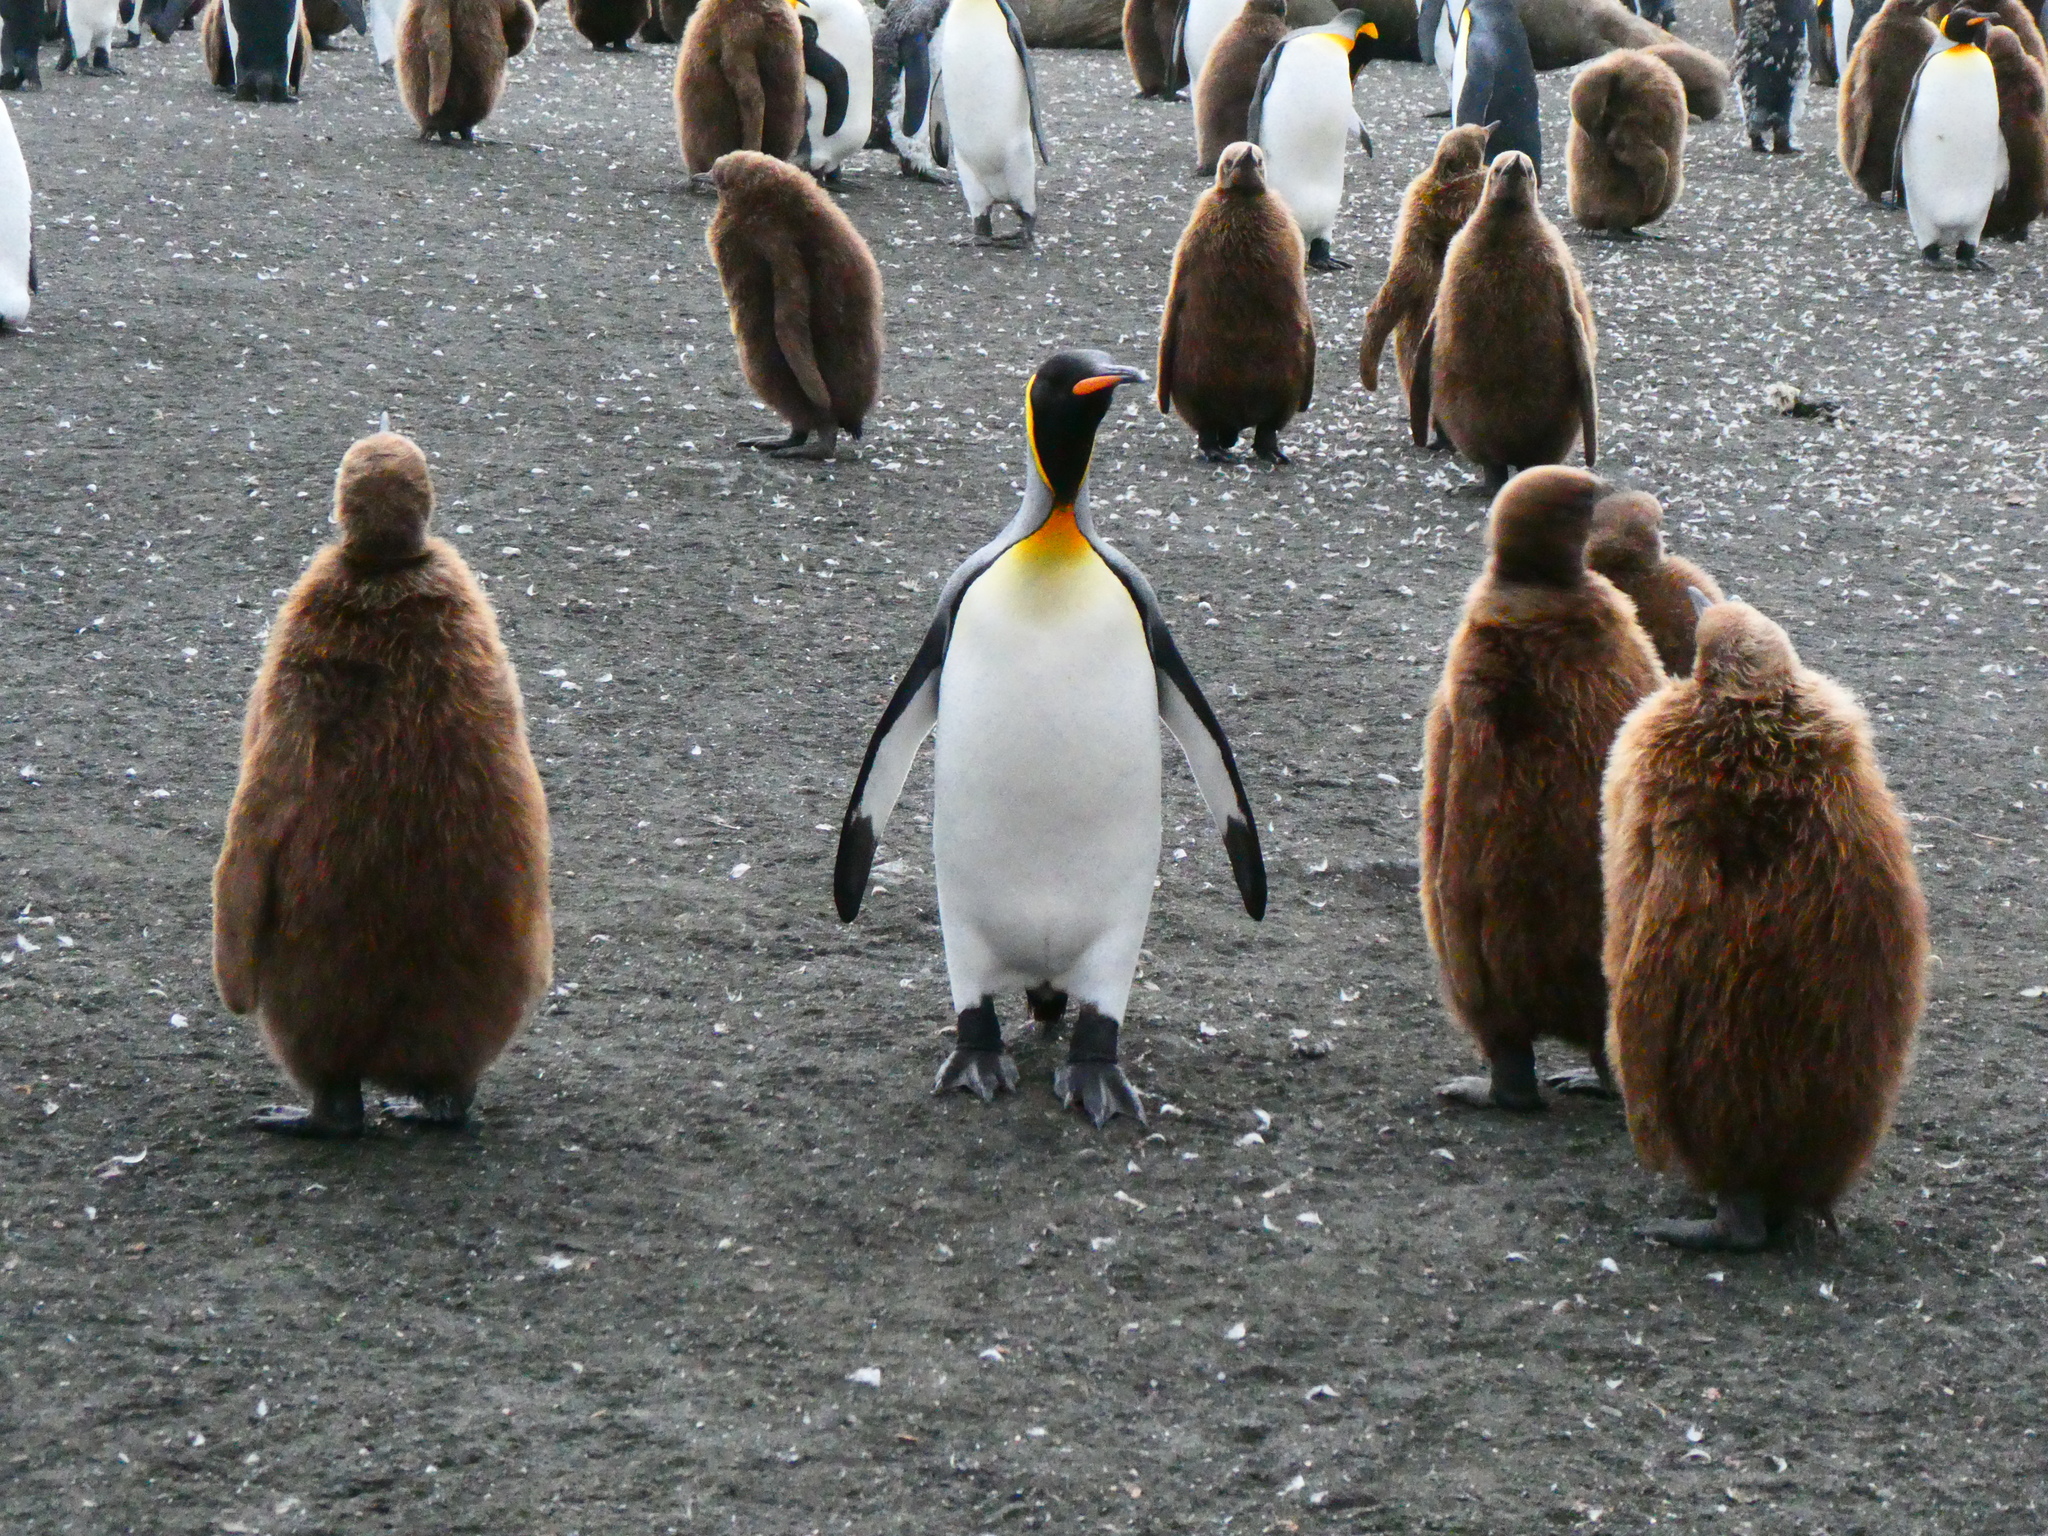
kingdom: Animalia
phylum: Chordata
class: Aves
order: Sphenisciformes
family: Spheniscidae
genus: Aptenodytes
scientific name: Aptenodytes patagonicus
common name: King penguin
